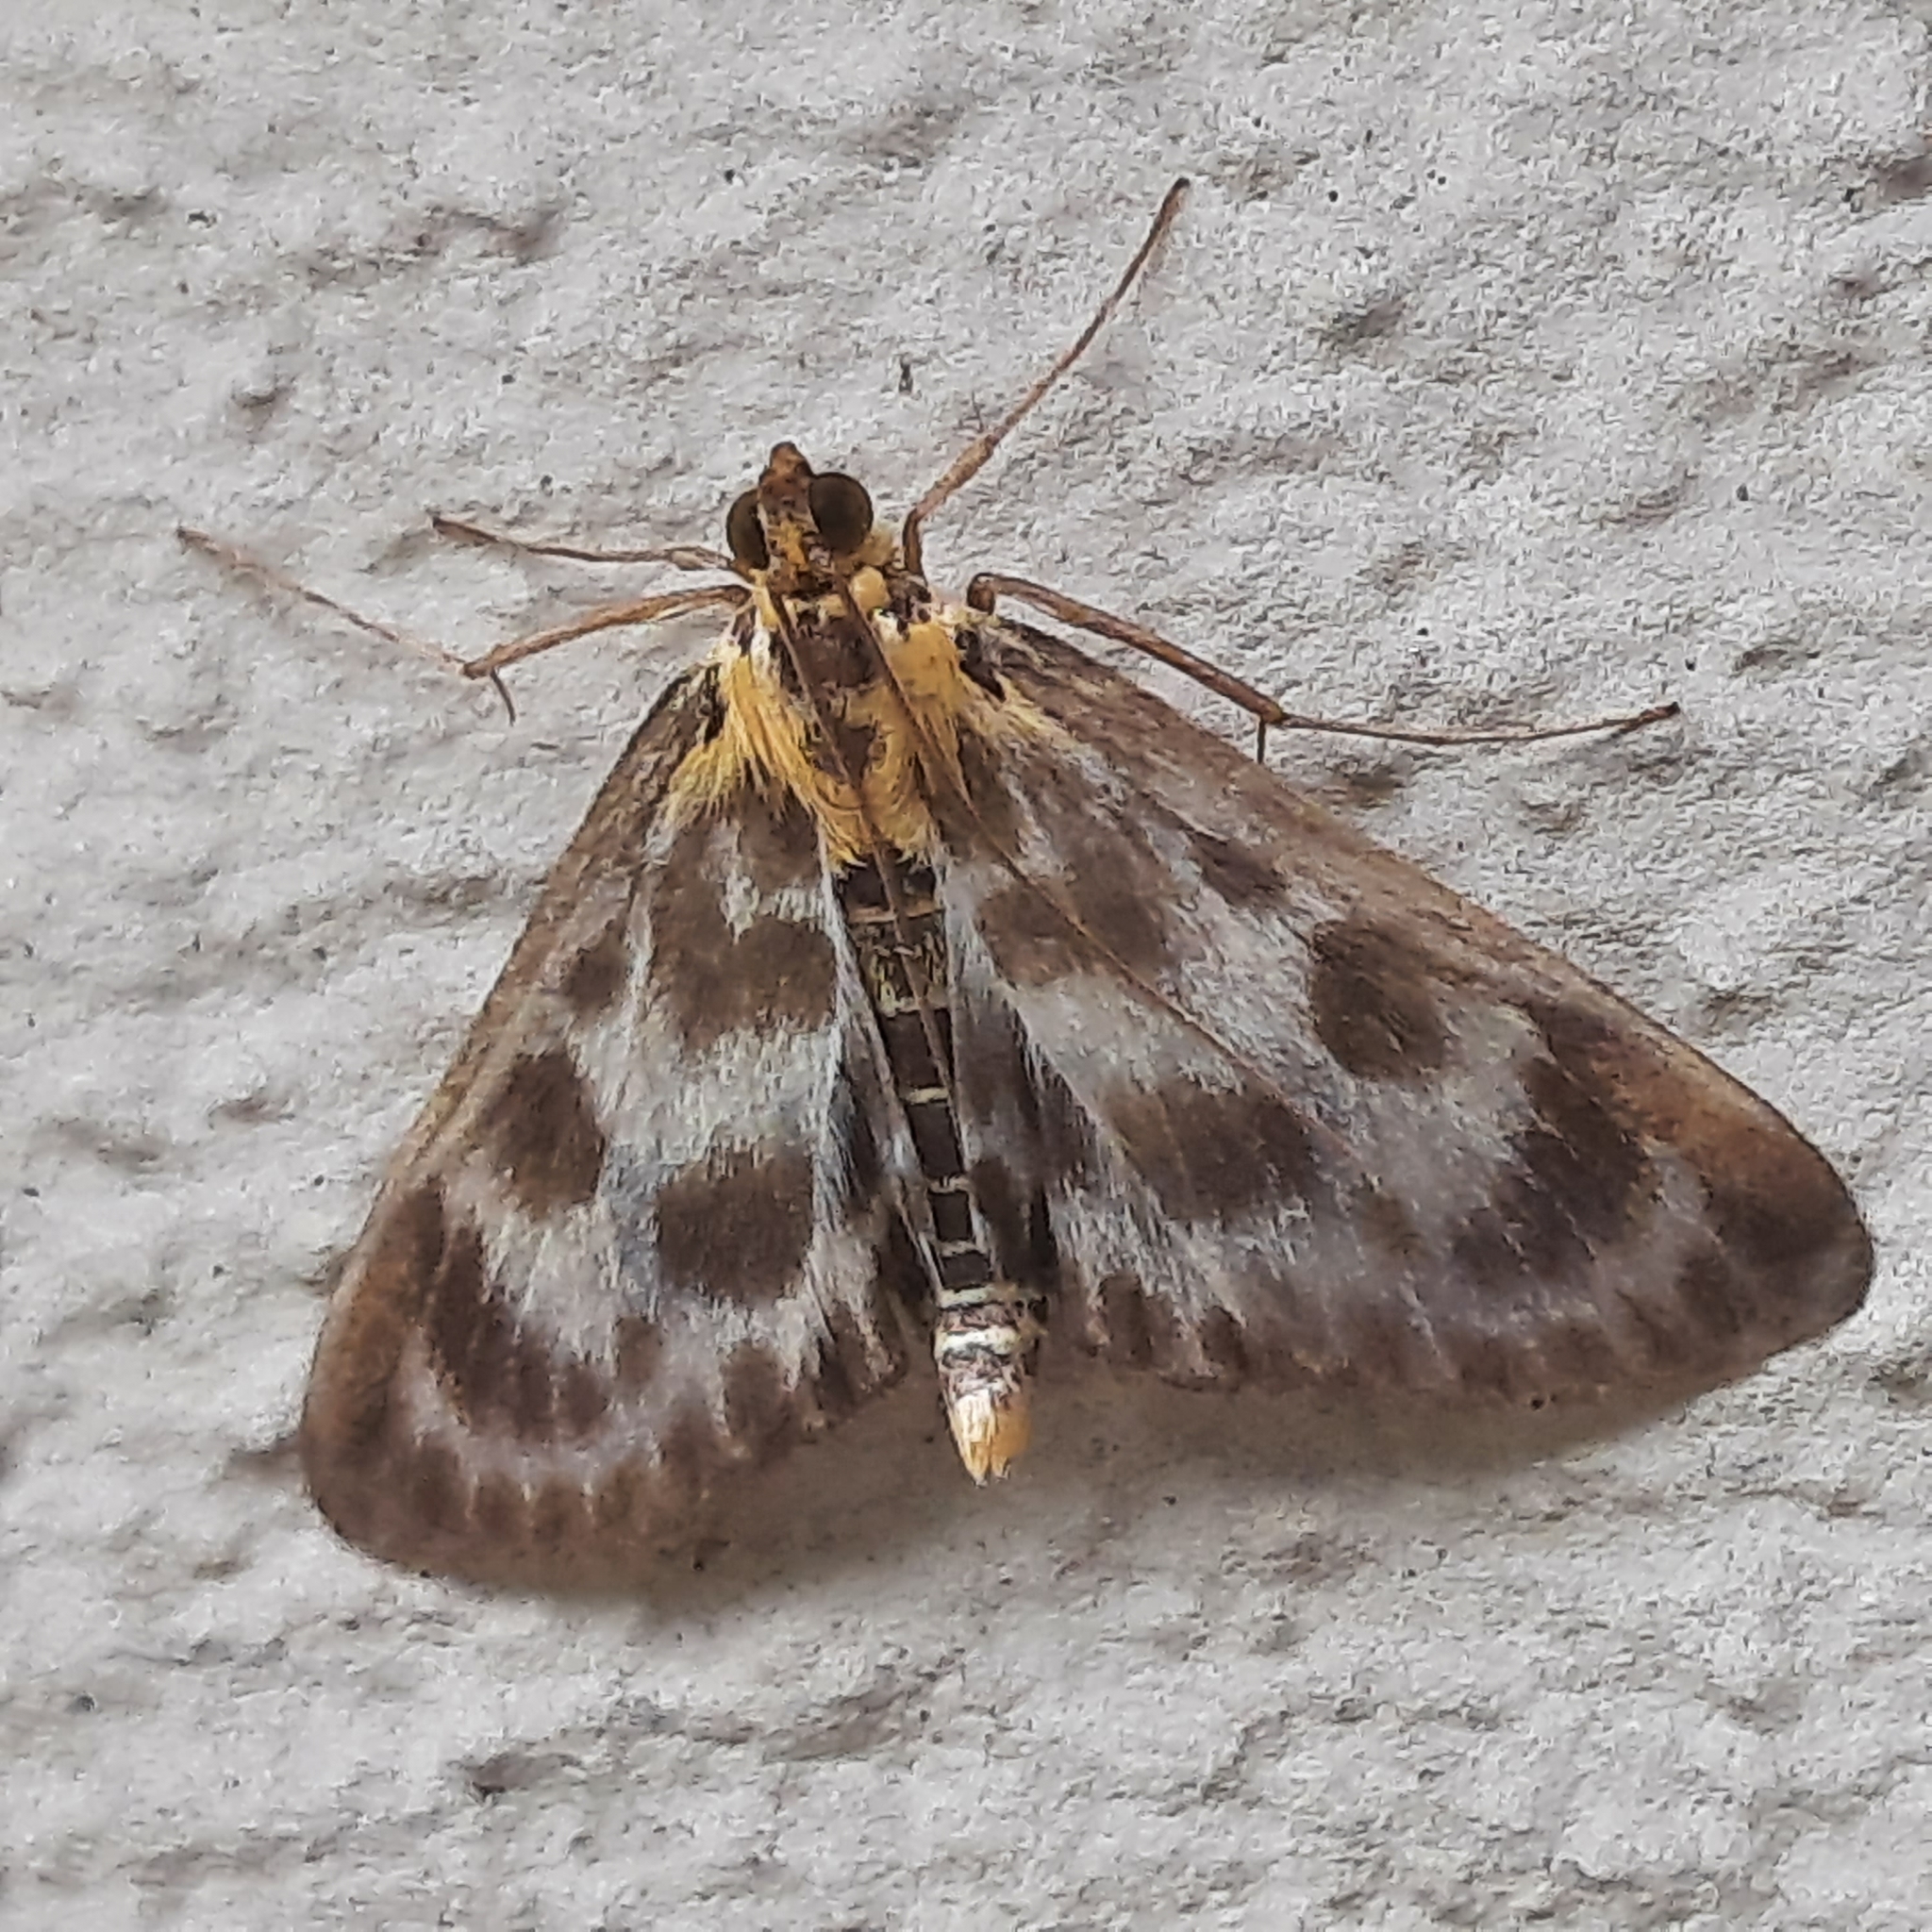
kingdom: Animalia
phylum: Arthropoda
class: Insecta
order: Lepidoptera
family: Crambidae
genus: Anania
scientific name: Anania hortulata
